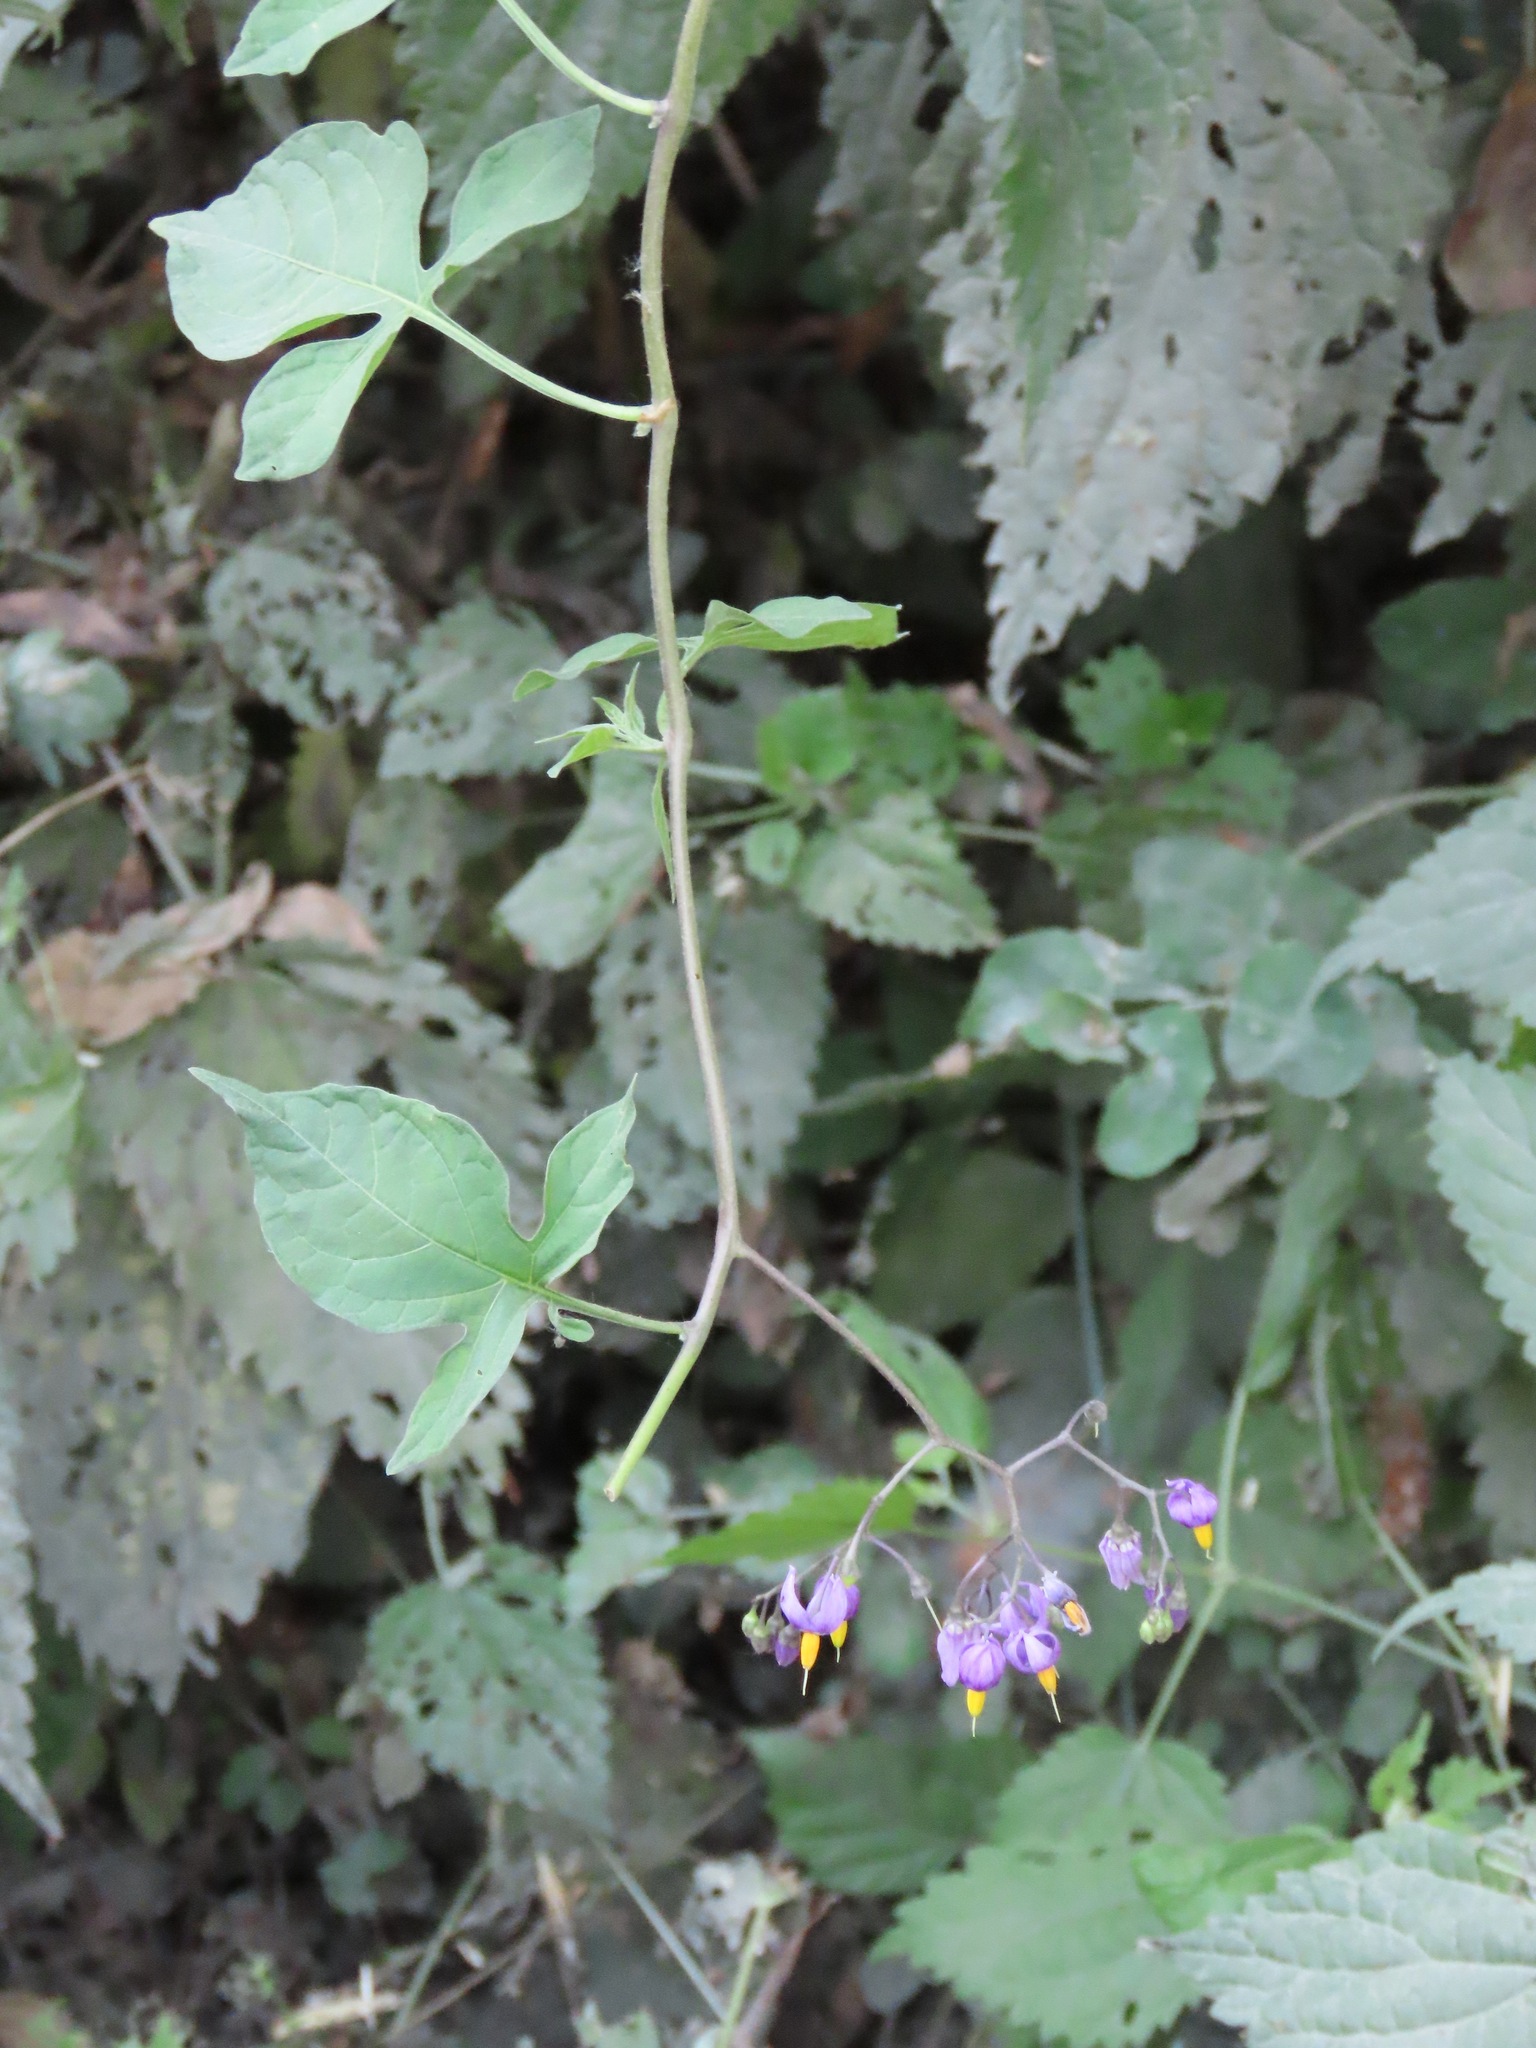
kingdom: Plantae
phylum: Tracheophyta
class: Magnoliopsida
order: Solanales
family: Solanaceae
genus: Solanum
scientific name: Solanum dulcamara
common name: Climbing nightshade
